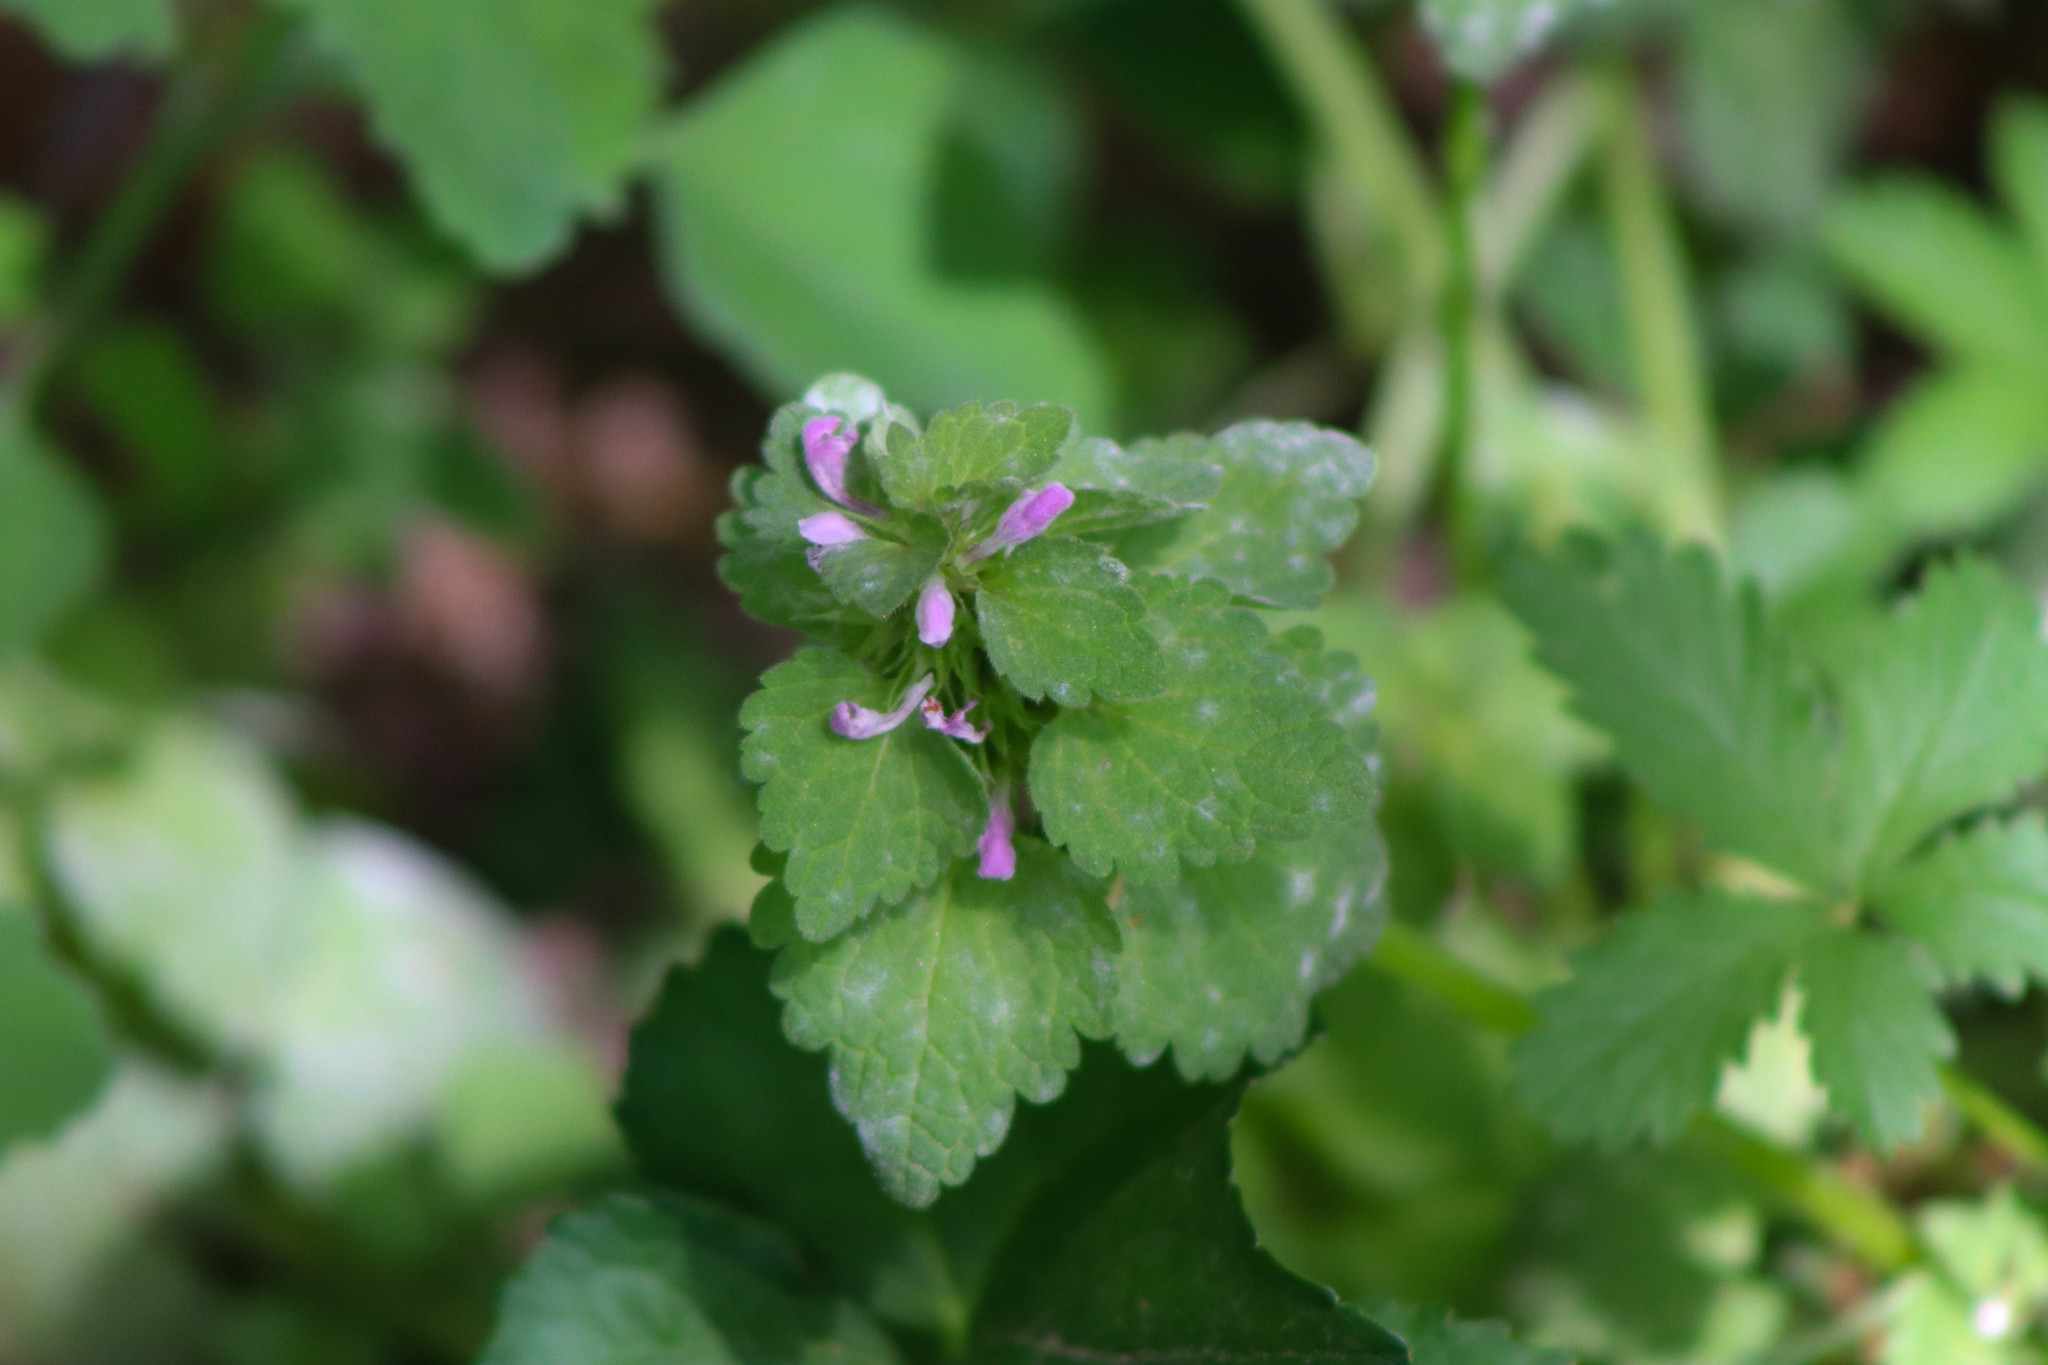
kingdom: Plantae
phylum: Tracheophyta
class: Magnoliopsida
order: Lamiales
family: Lamiaceae
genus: Lamium
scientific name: Lamium purpureum
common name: Red dead-nettle
